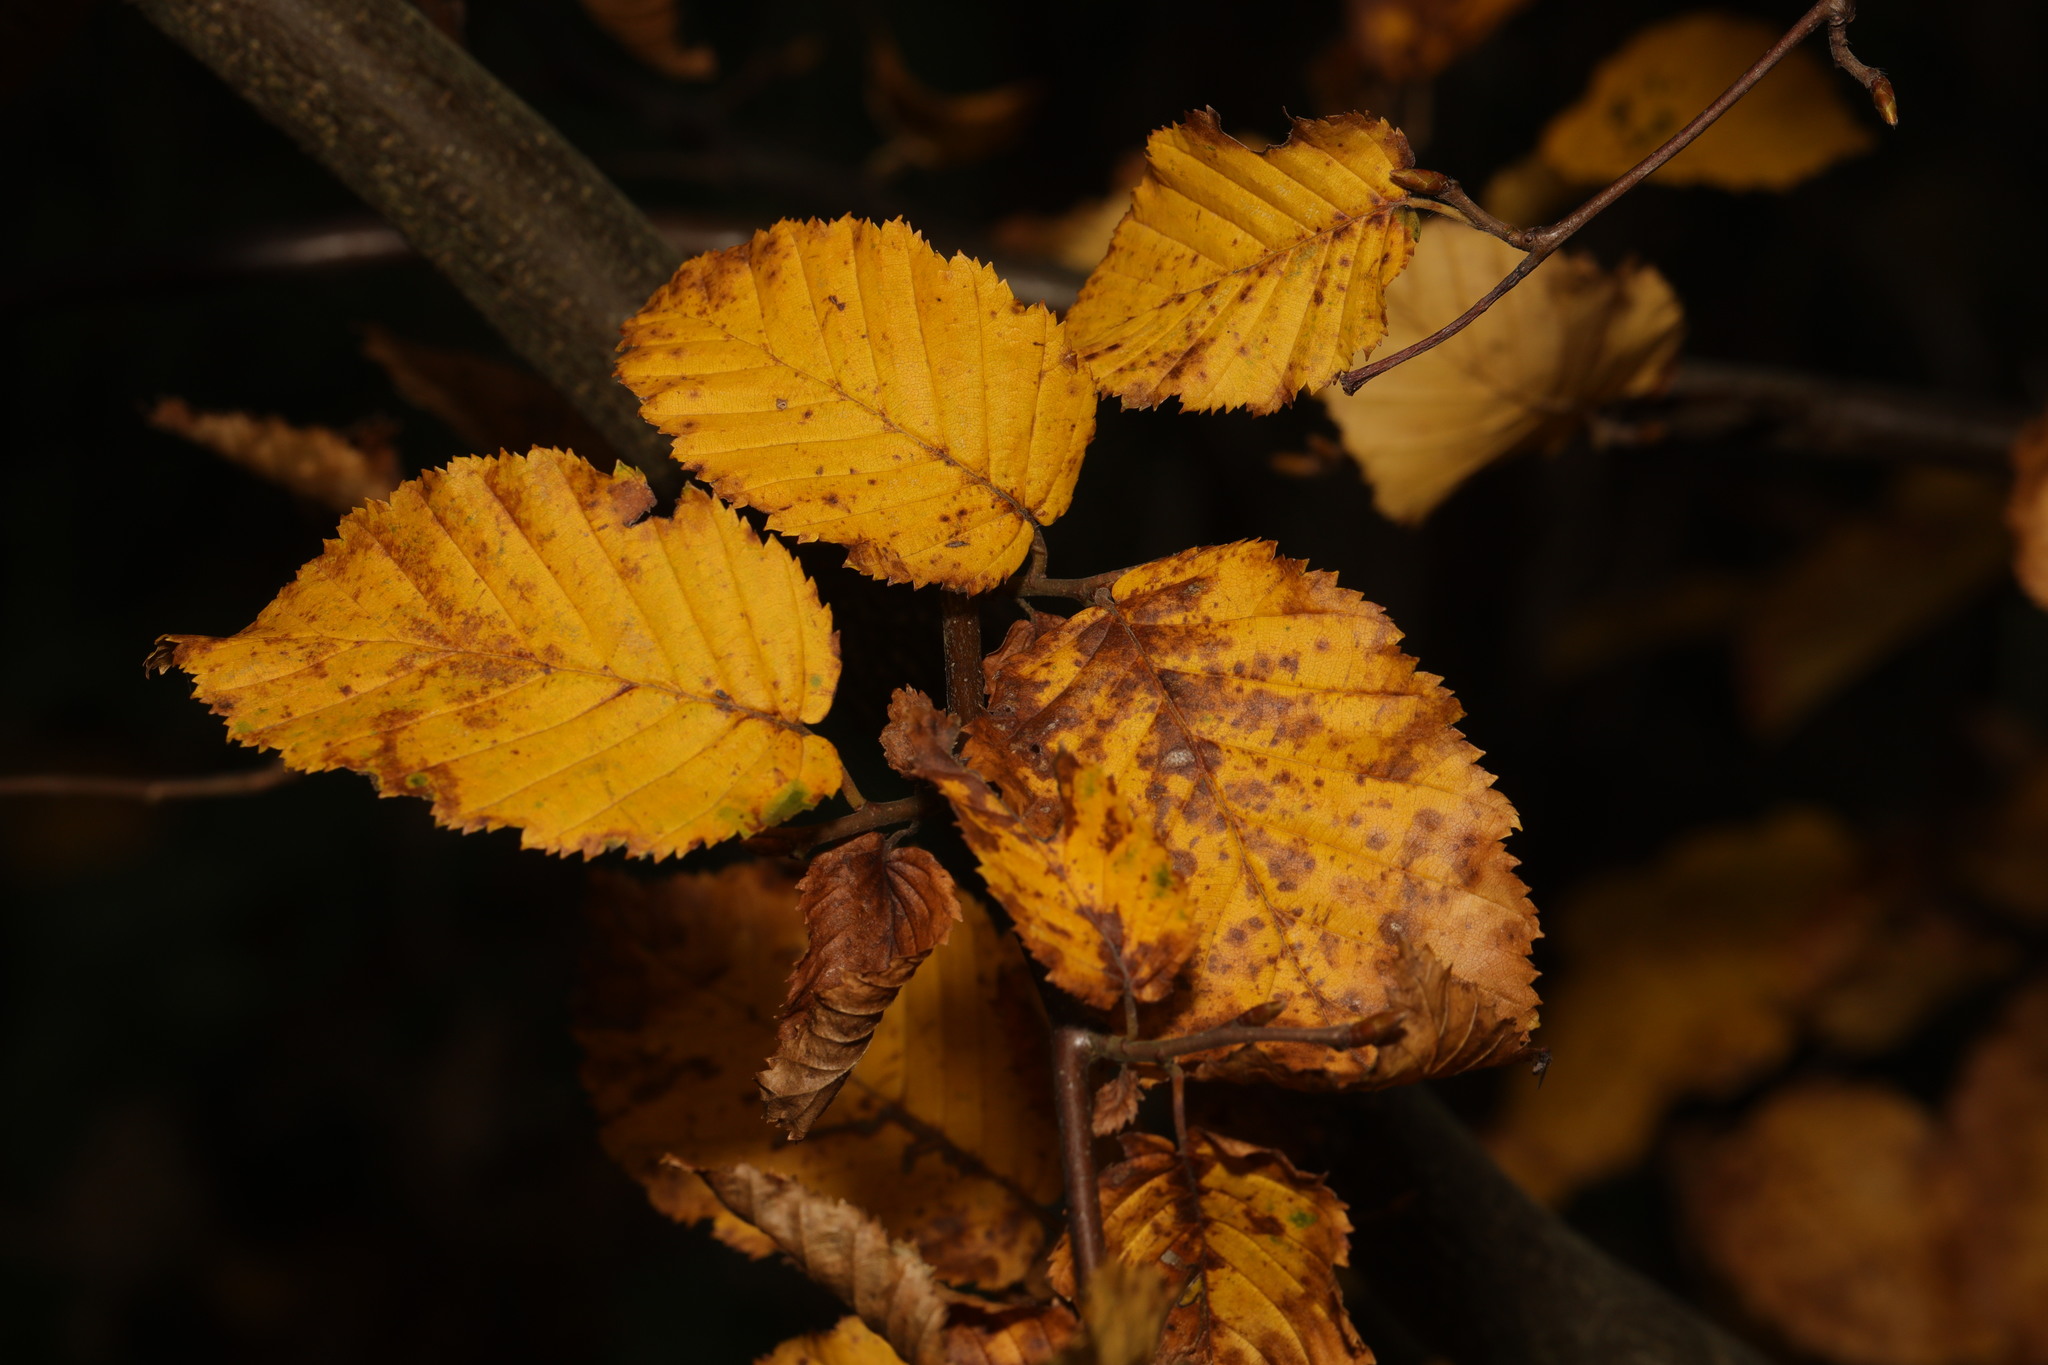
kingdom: Plantae
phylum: Tracheophyta
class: Magnoliopsida
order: Fagales
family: Betulaceae
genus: Carpinus
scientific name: Carpinus betulus
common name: Hornbeam
